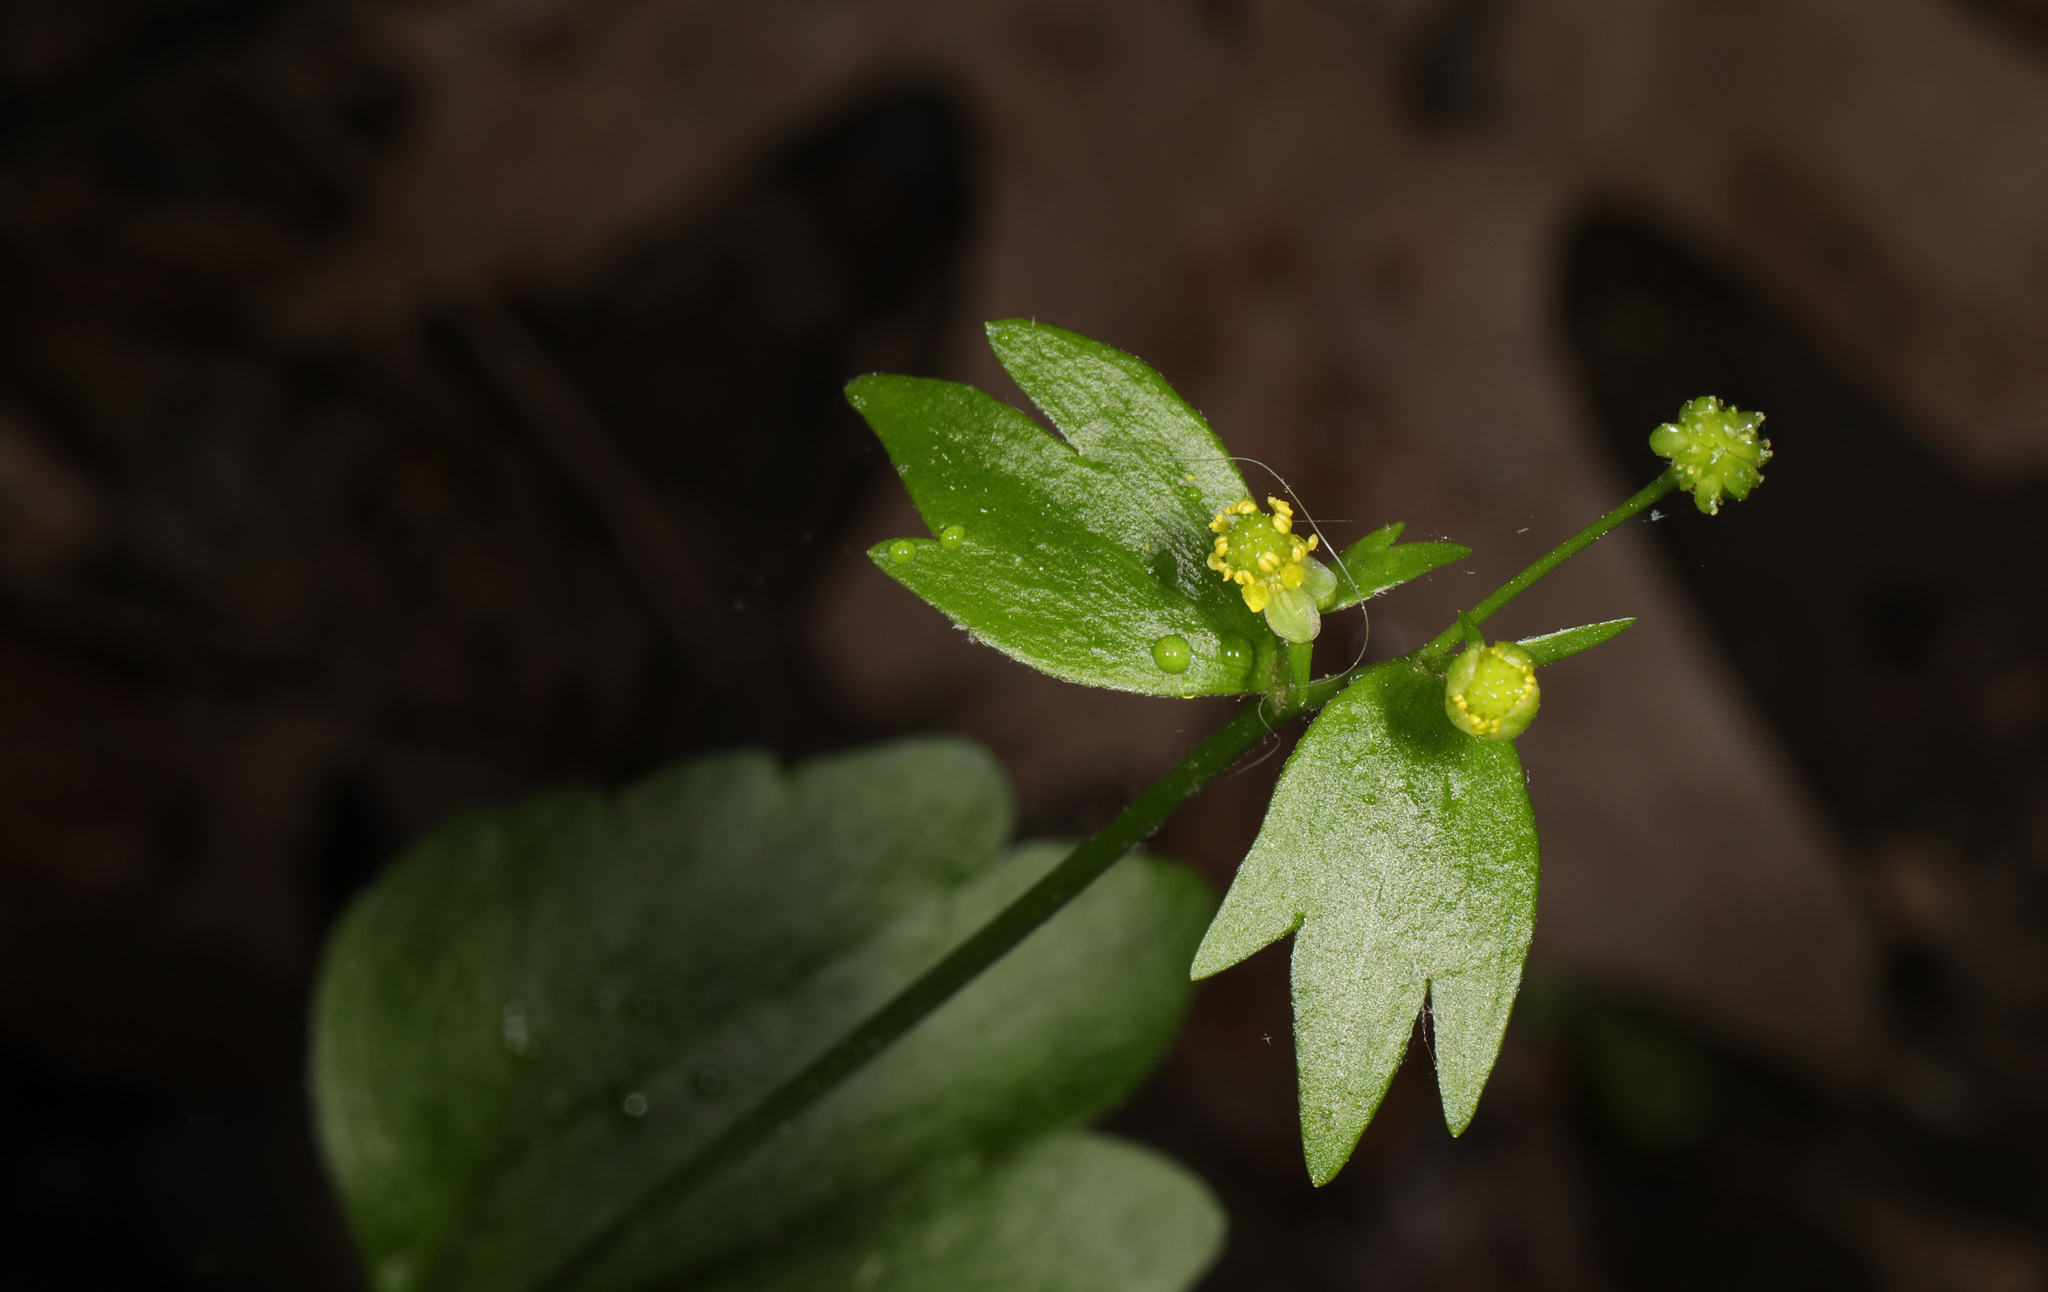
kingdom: Plantae
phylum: Tracheophyta
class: Magnoliopsida
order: Ranunculales
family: Ranunculaceae
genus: Ranunculus
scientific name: Ranunculus abortivus
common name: Early wood buttercup
